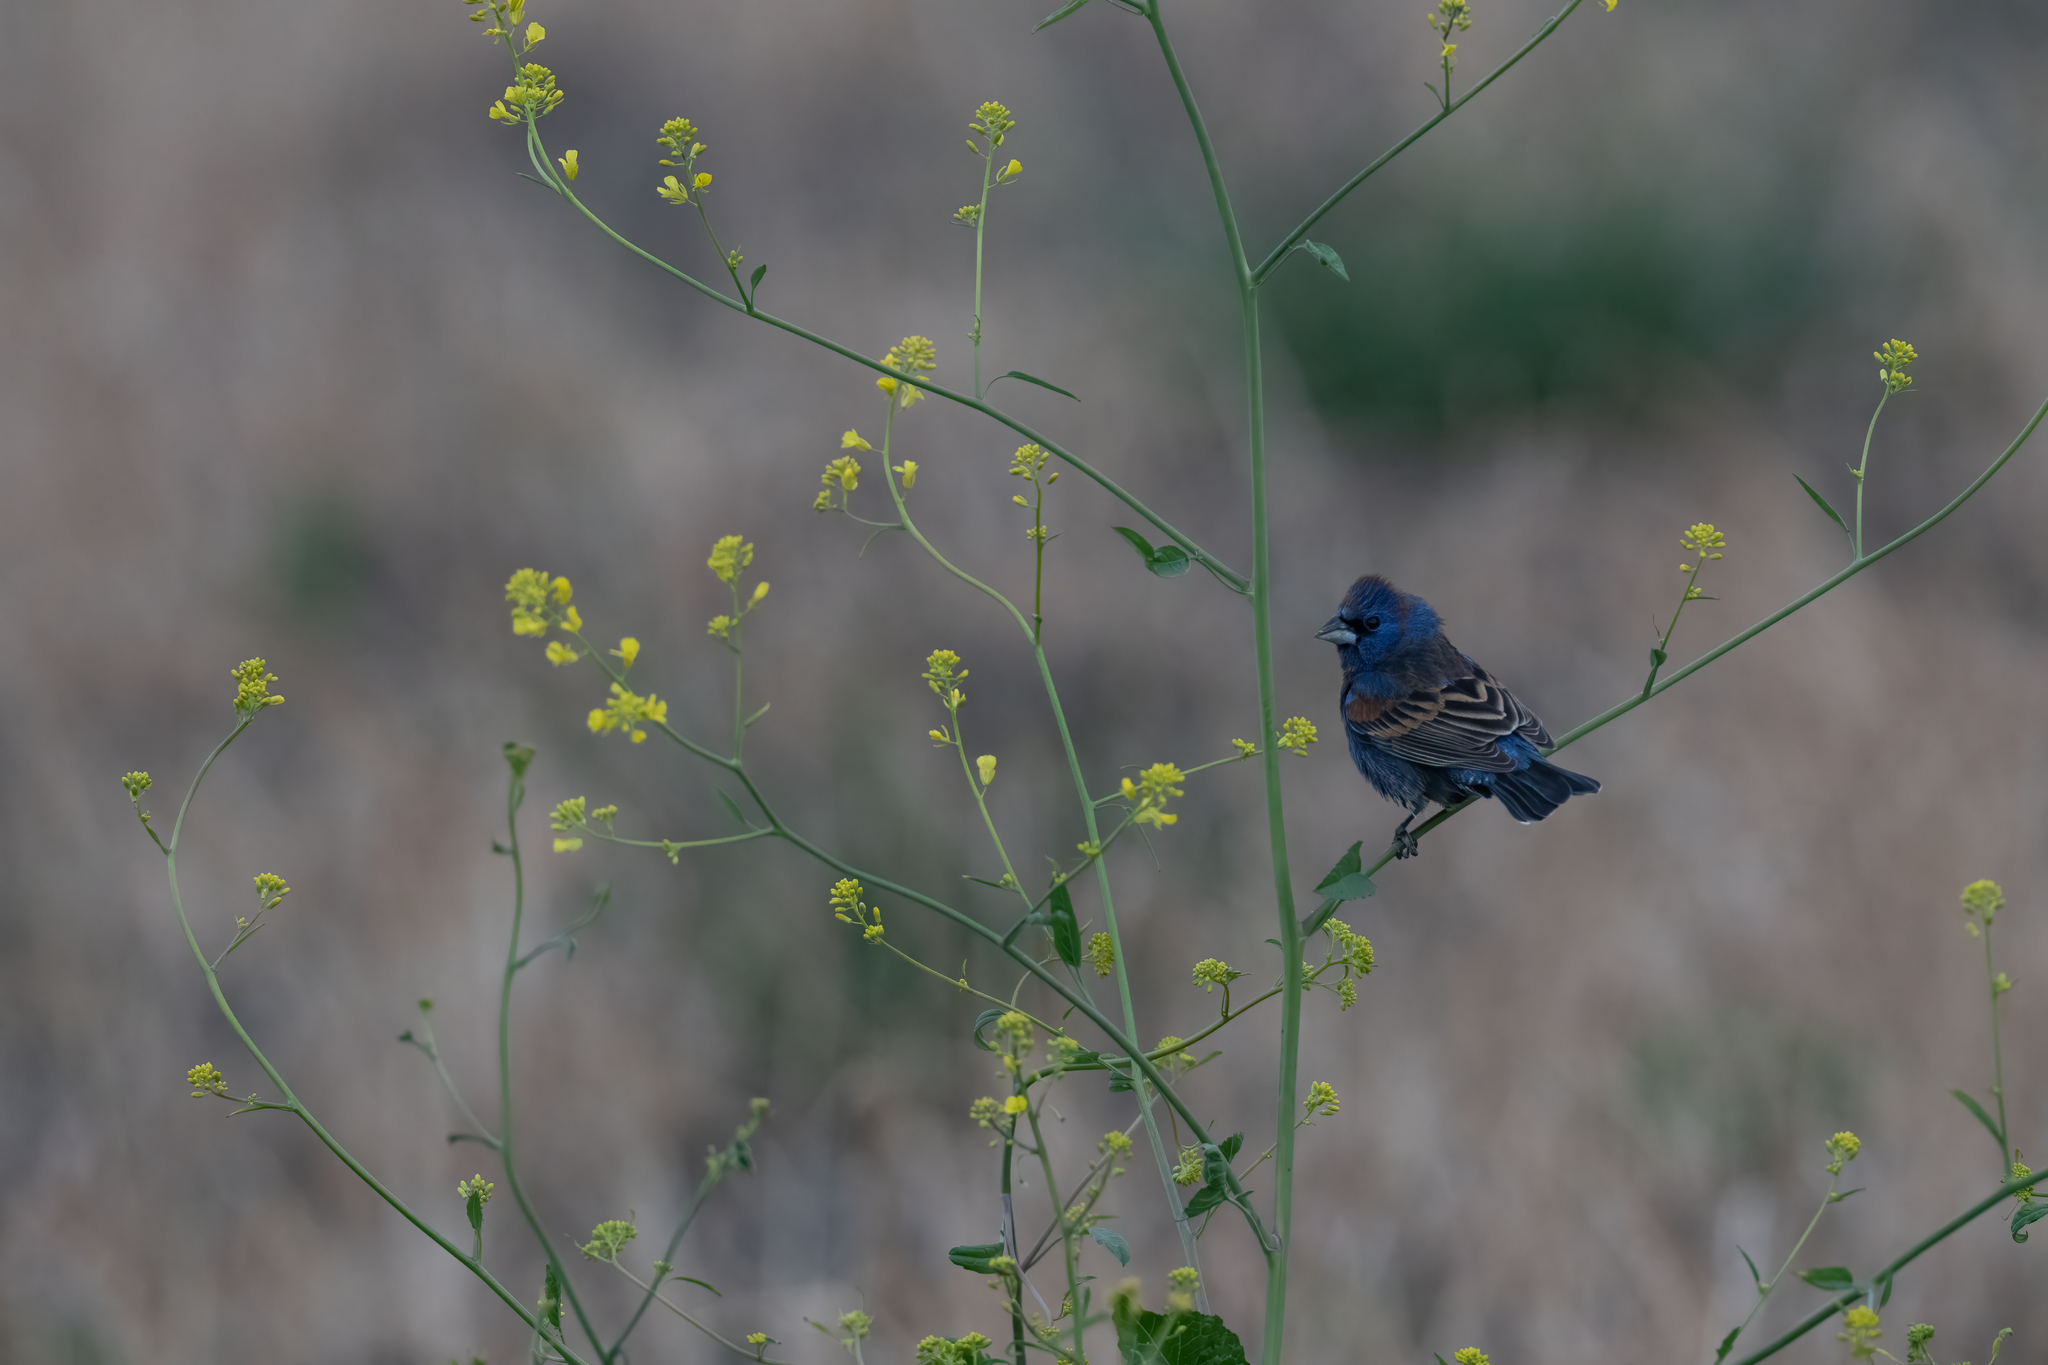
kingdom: Animalia
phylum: Chordata
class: Aves
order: Passeriformes
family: Cardinalidae
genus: Passerina
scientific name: Passerina caerulea
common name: Blue grosbeak
